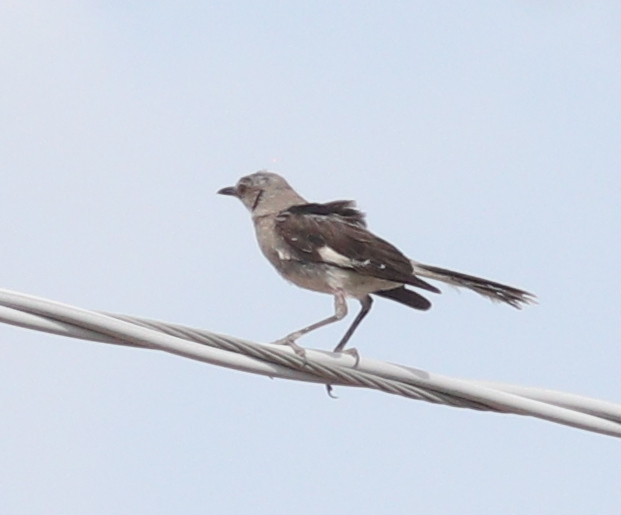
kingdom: Animalia
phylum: Chordata
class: Aves
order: Passeriformes
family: Mimidae
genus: Mimus
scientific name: Mimus polyglottos
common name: Northern mockingbird
